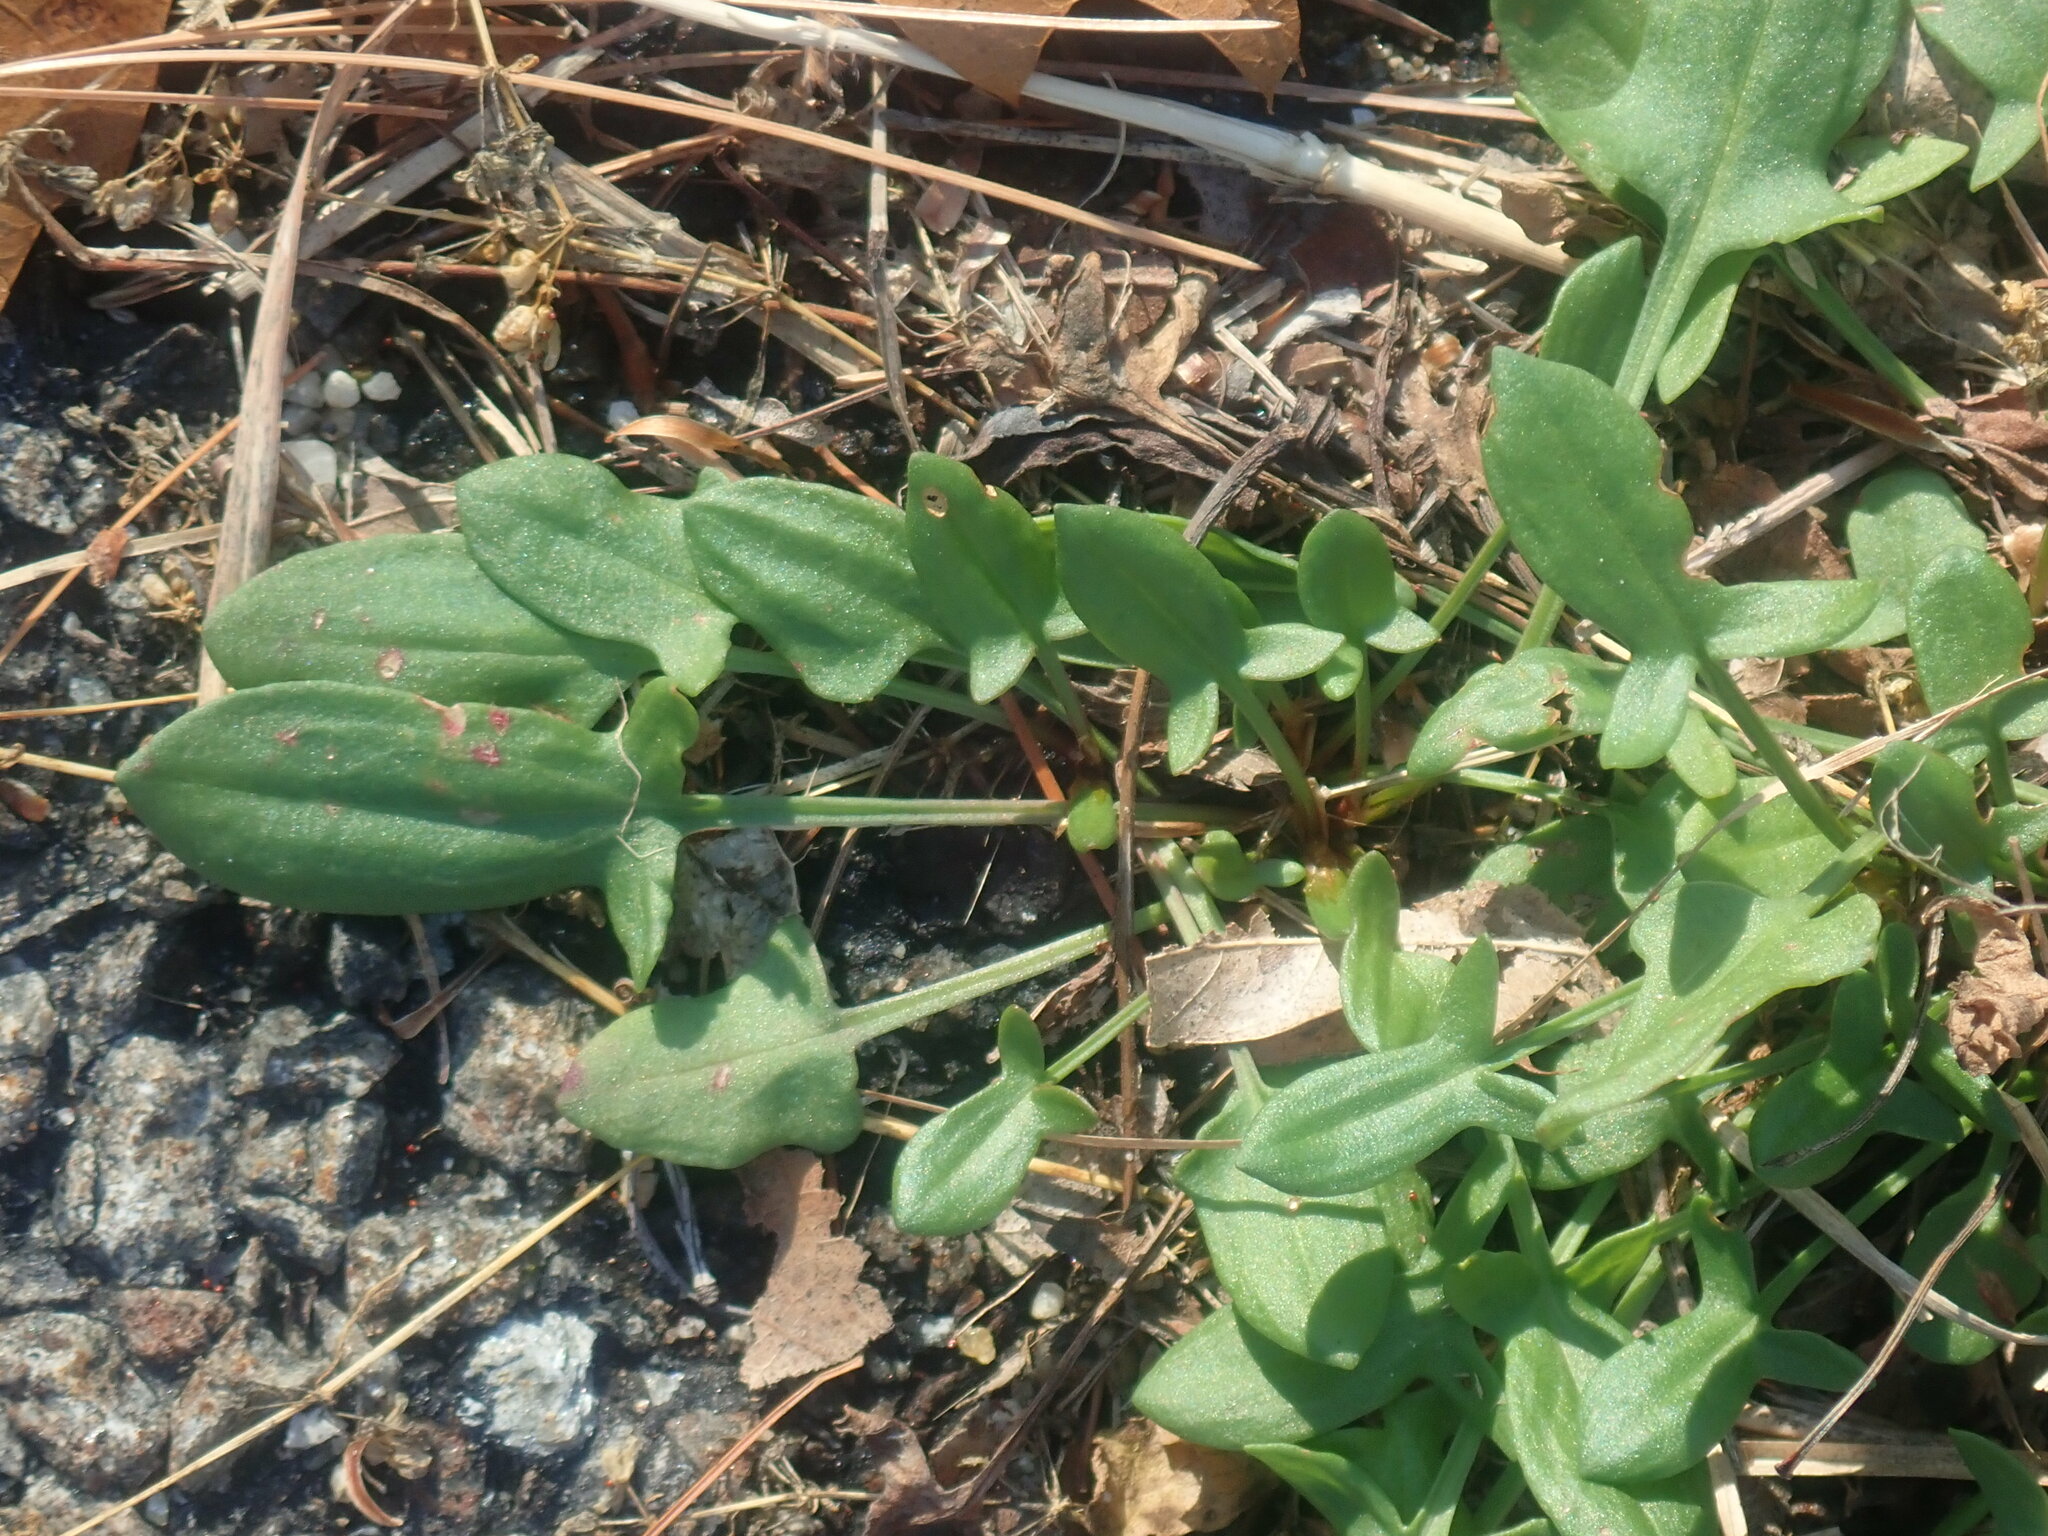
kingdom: Plantae
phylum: Tracheophyta
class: Magnoliopsida
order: Caryophyllales
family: Polygonaceae
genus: Rumex
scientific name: Rumex acetosella
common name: Common sheep sorrel
